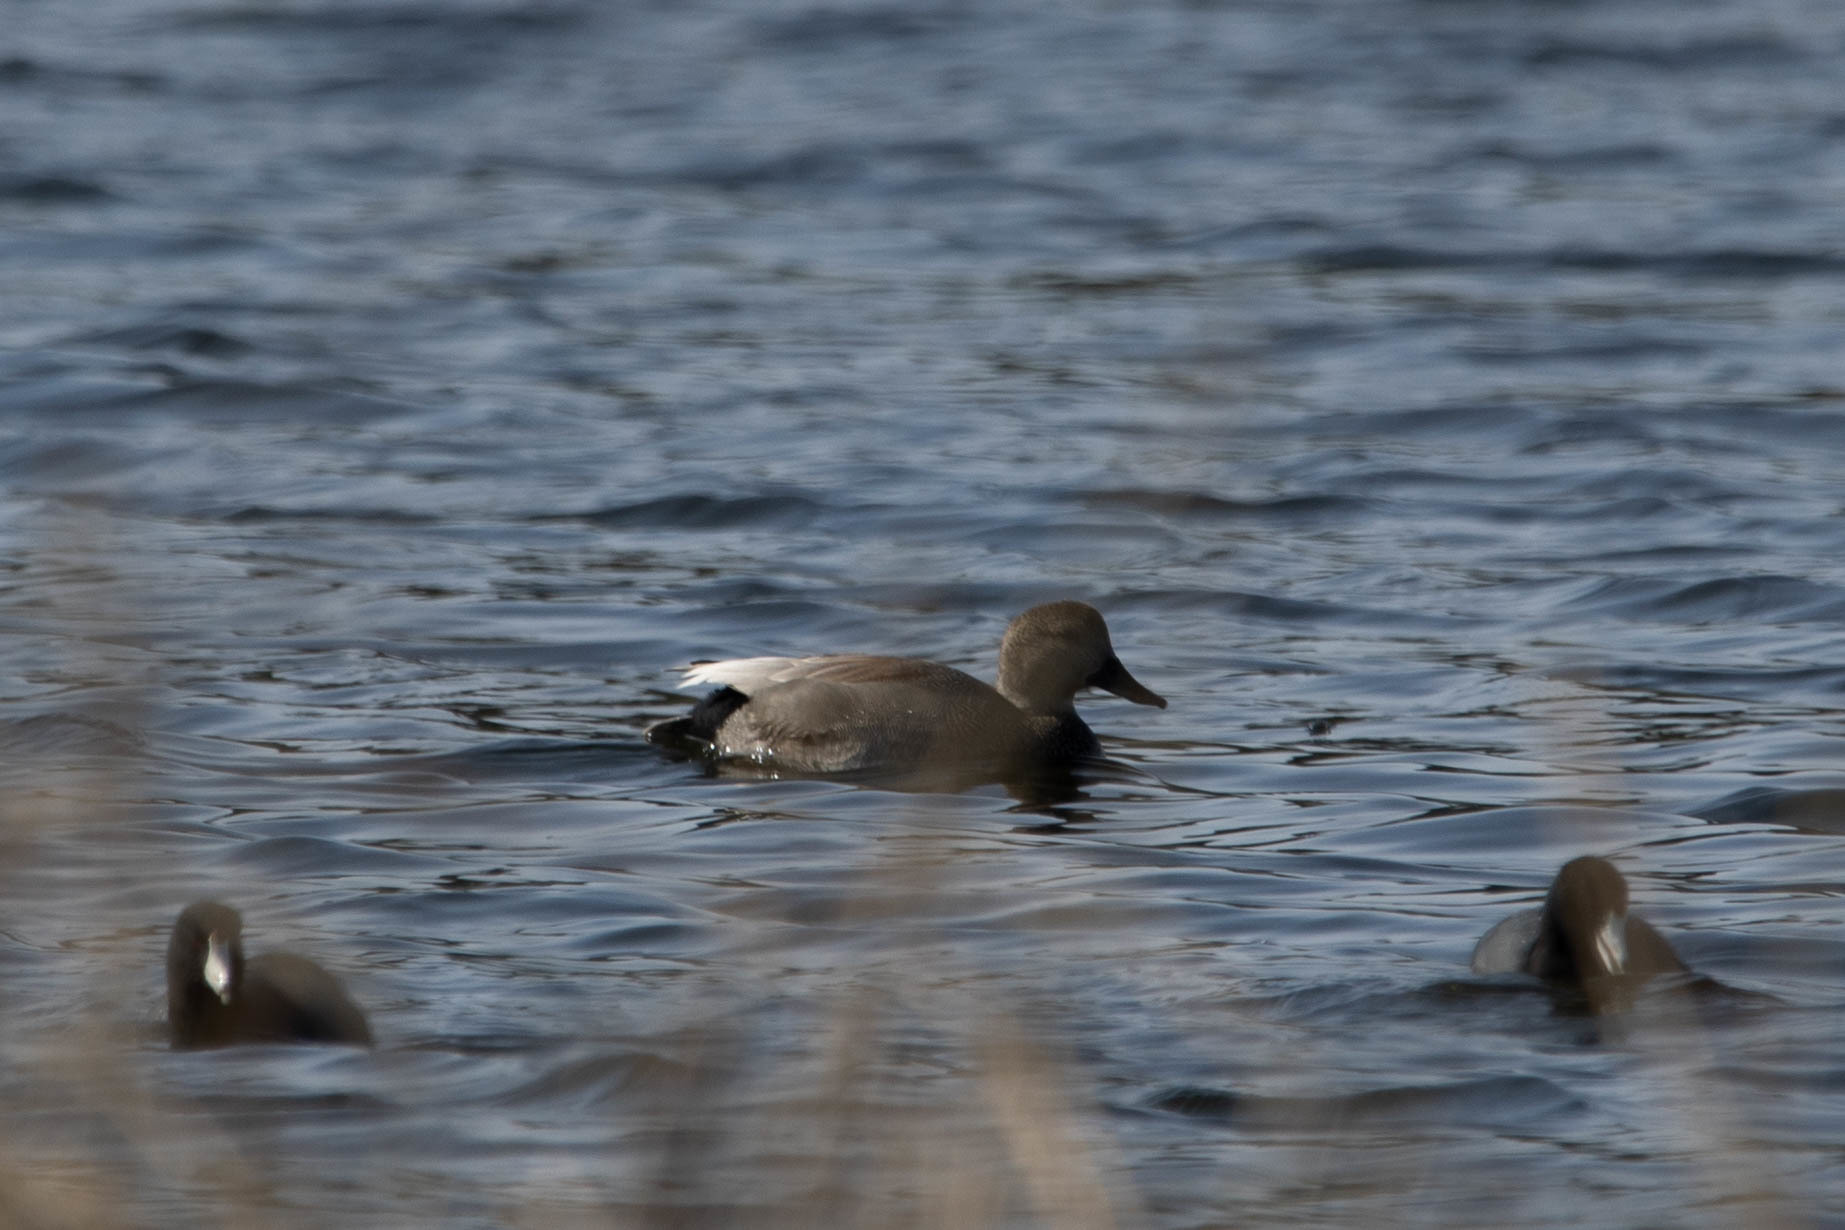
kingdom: Animalia
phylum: Chordata
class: Aves
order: Anseriformes
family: Anatidae
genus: Mareca
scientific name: Mareca strepera
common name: Gadwall
